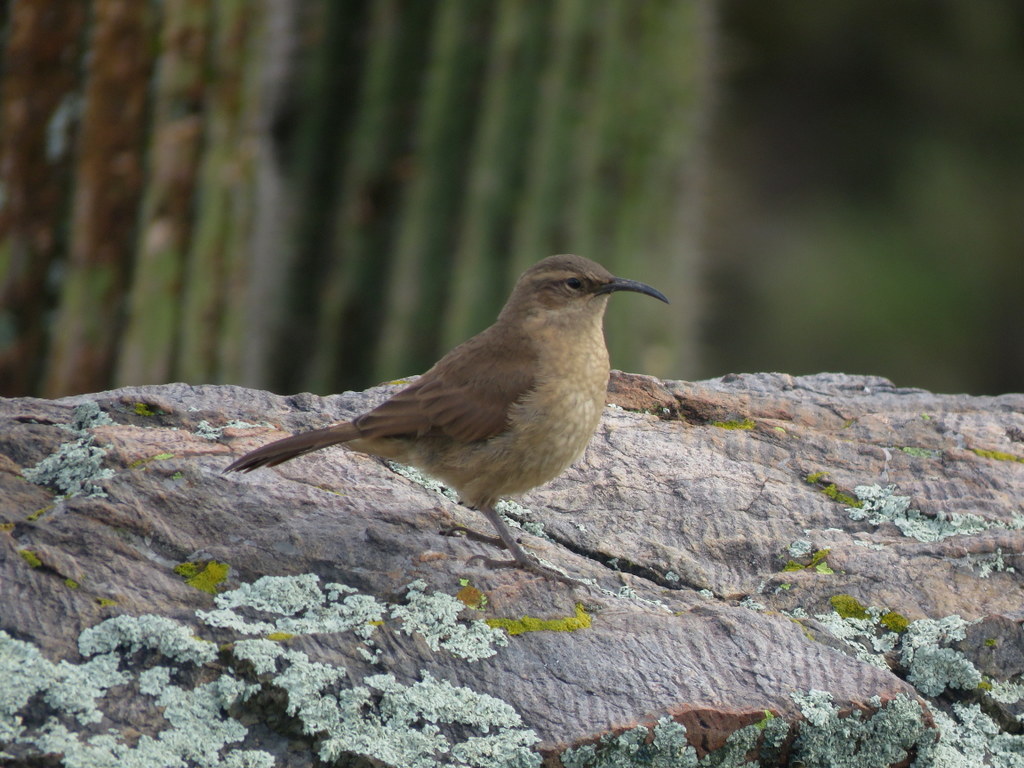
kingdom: Animalia
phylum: Chordata
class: Aves
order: Passeriformes
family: Furnariidae
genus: Upucerthia
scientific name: Upucerthia validirostris
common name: Buff-breasted earthcreeper
